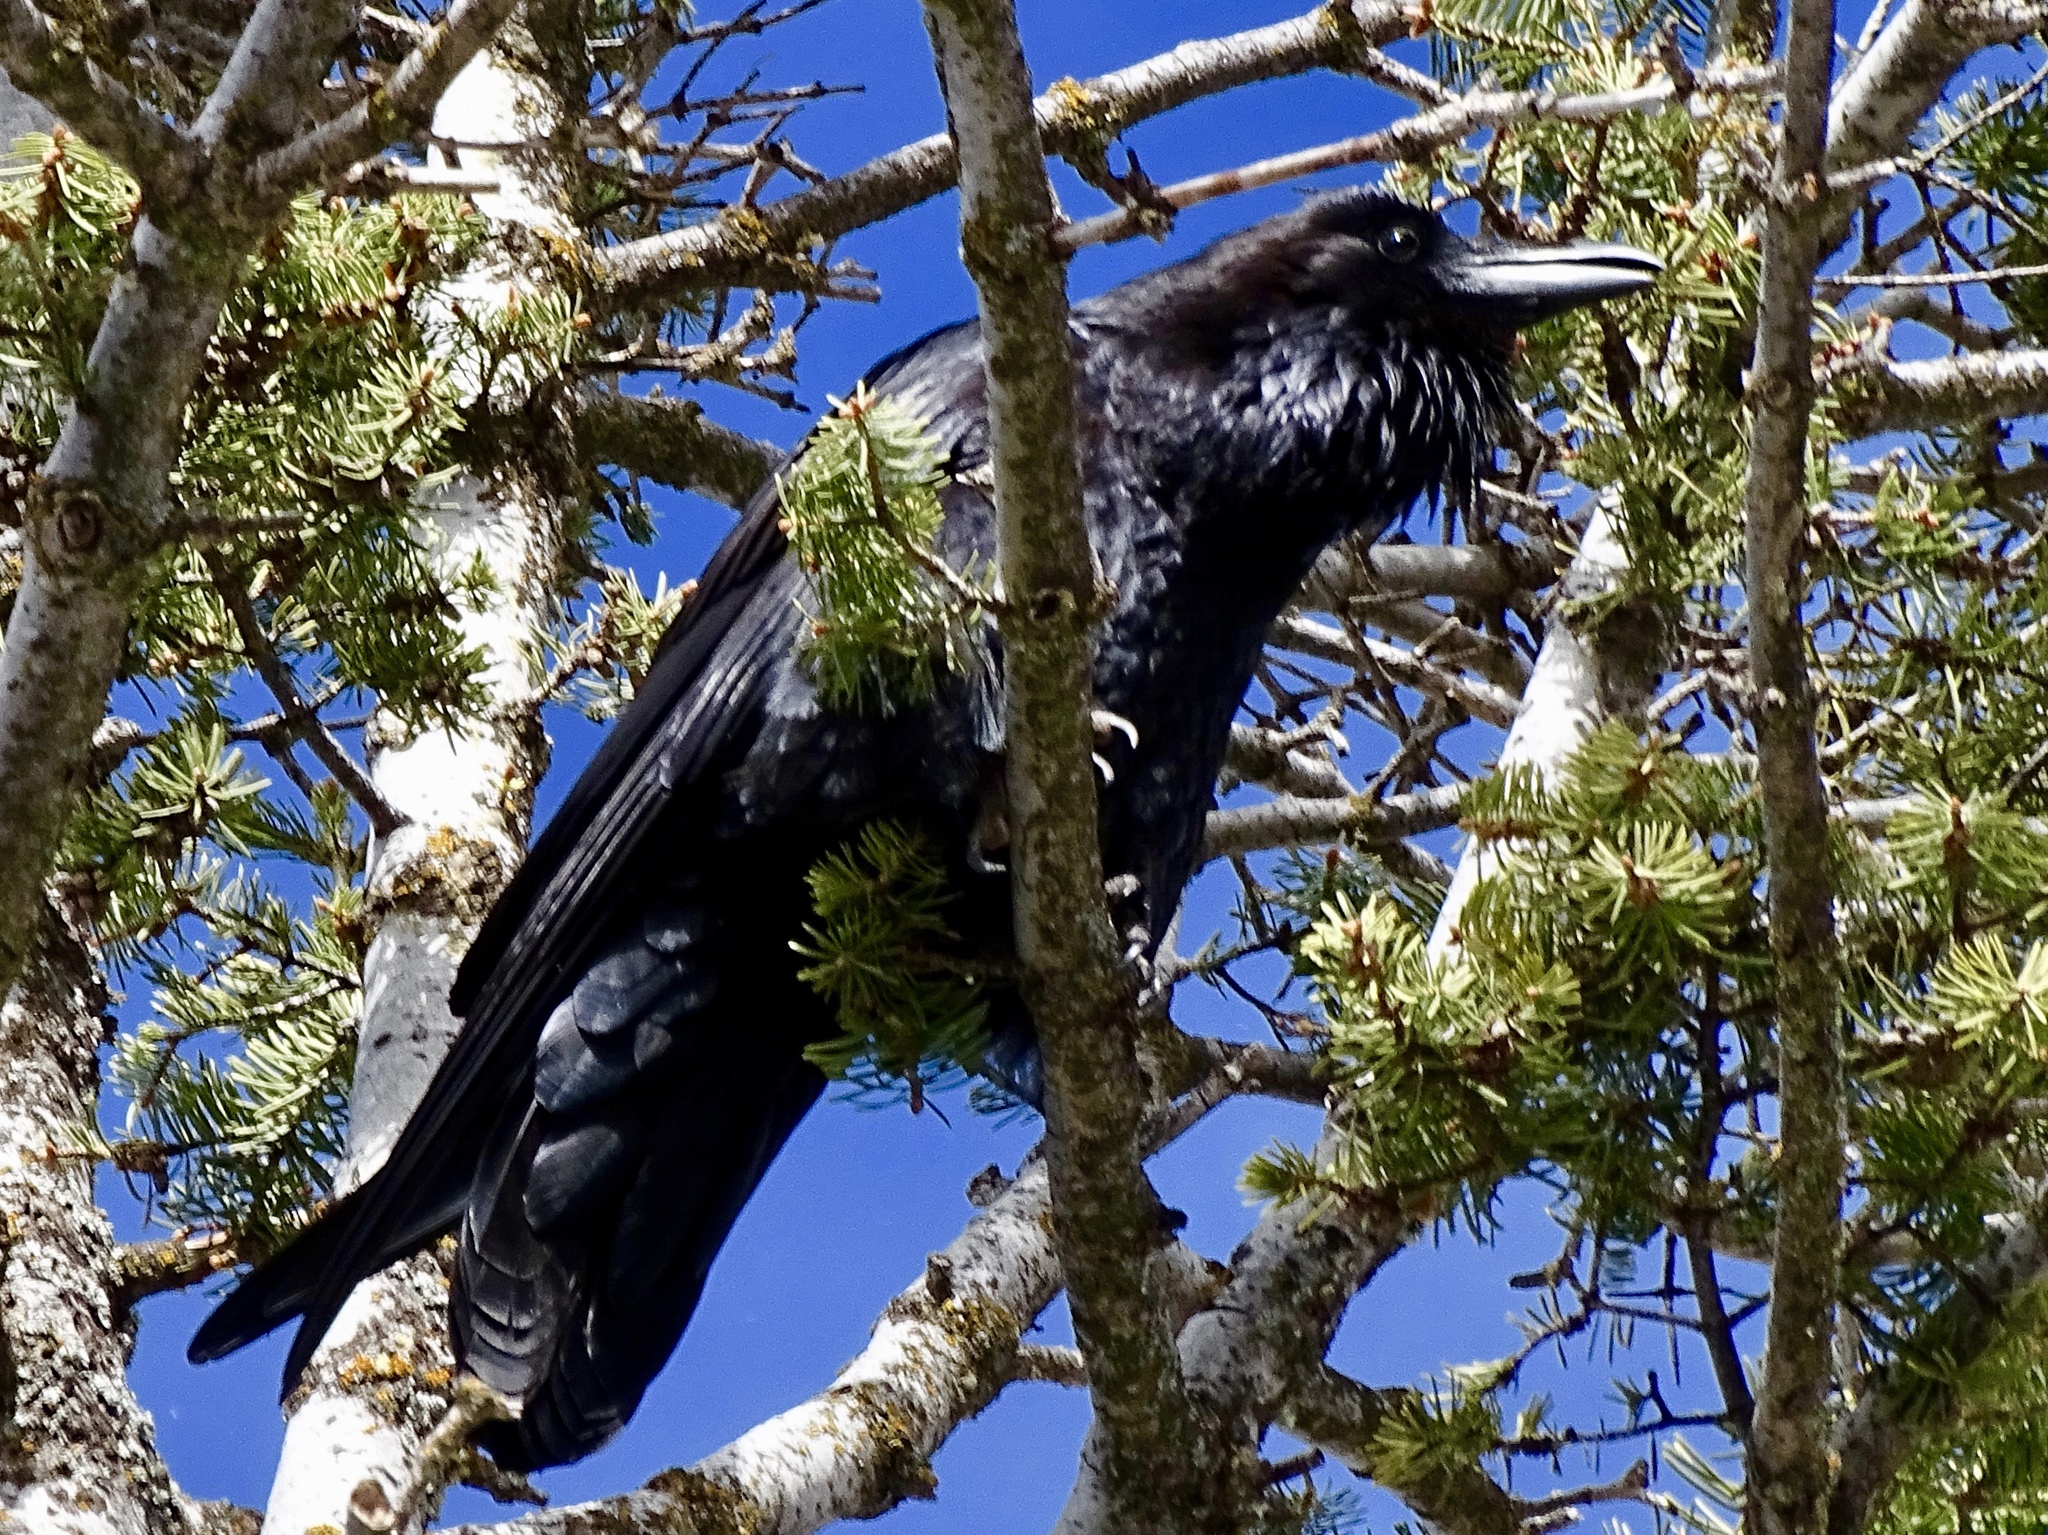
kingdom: Animalia
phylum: Chordata
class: Aves
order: Passeriformes
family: Corvidae
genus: Corvus
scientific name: Corvus corax
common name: Common raven
